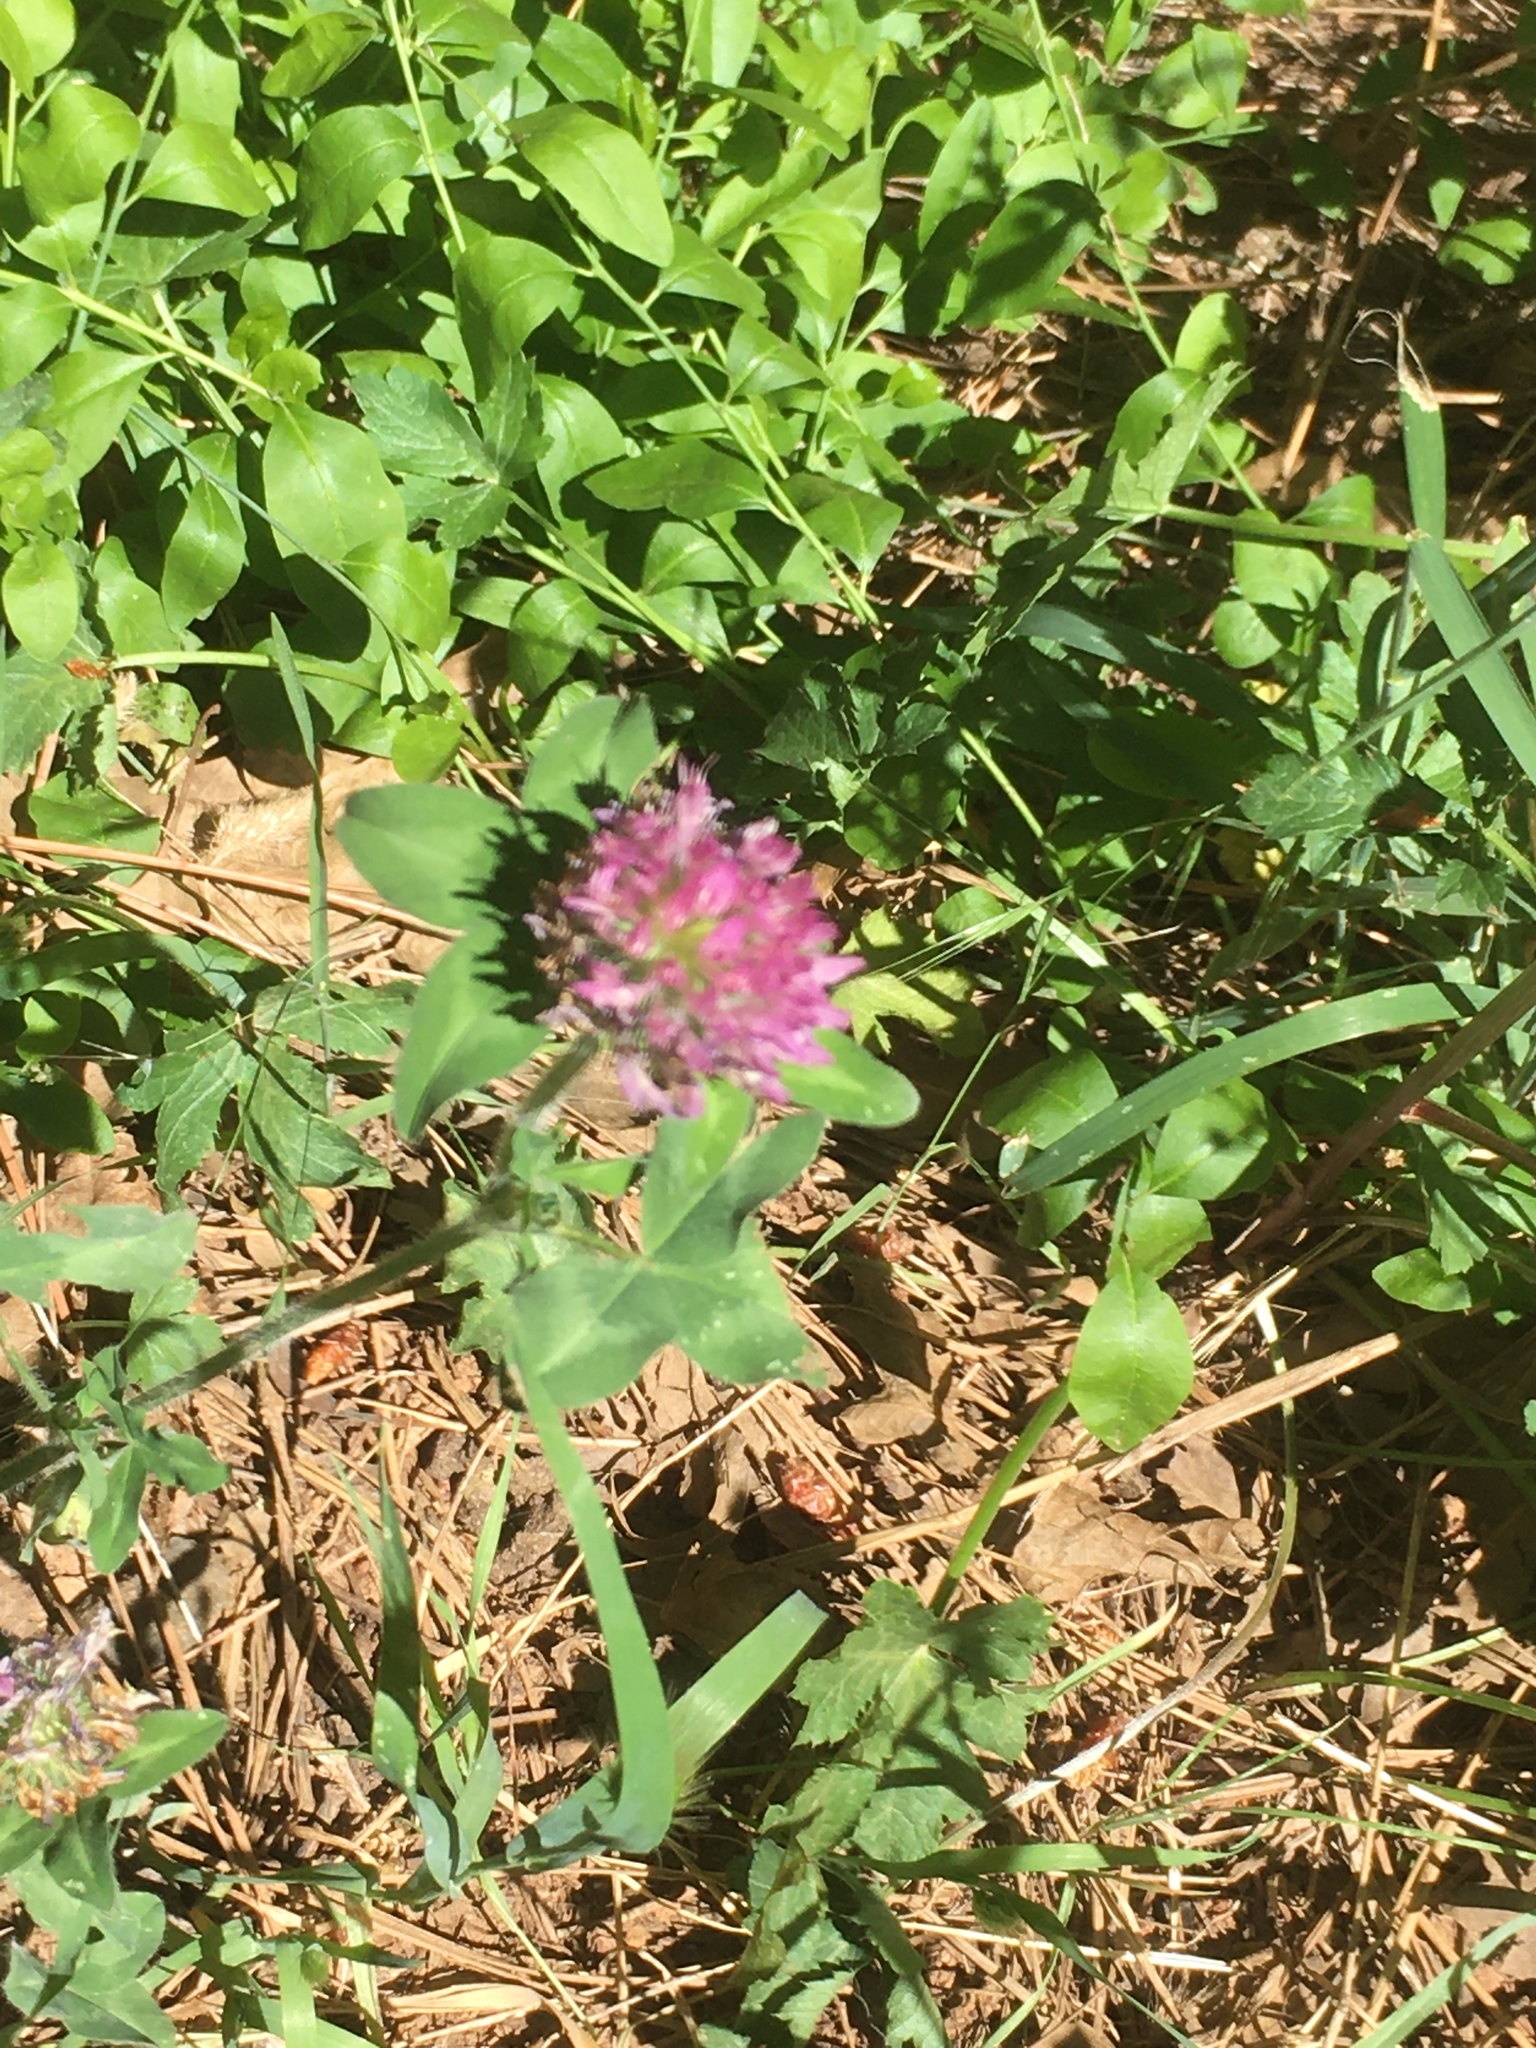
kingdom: Plantae
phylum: Tracheophyta
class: Magnoliopsida
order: Fabales
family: Fabaceae
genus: Trifolium
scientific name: Trifolium pratense
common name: Red clover
